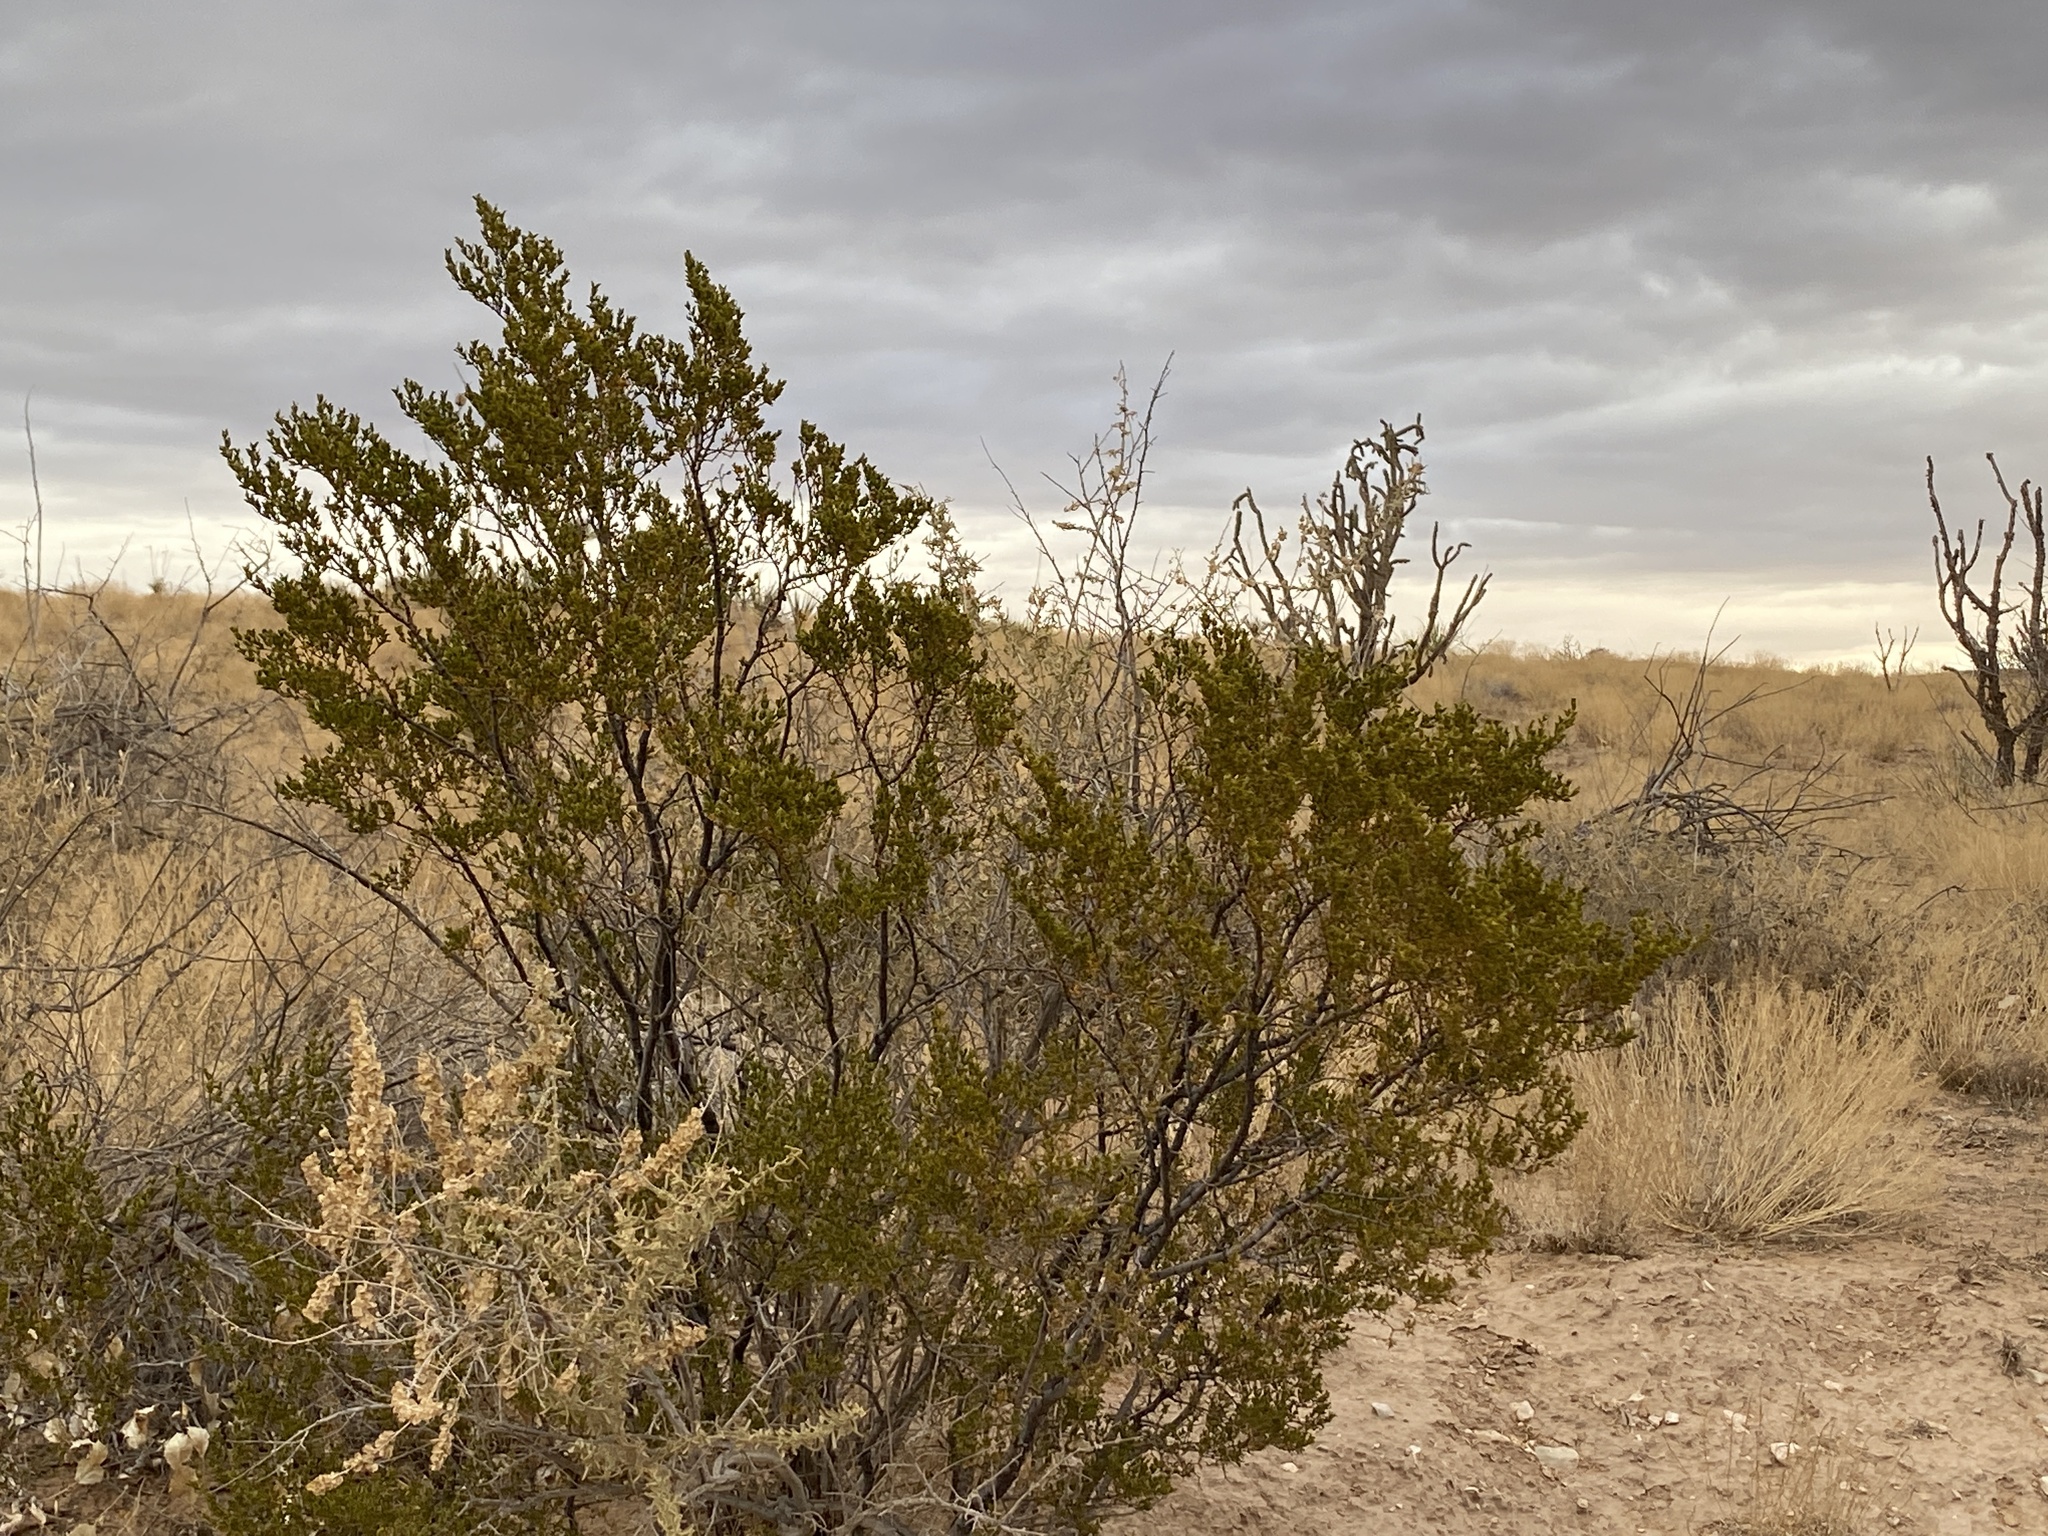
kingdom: Plantae
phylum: Tracheophyta
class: Magnoliopsida
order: Zygophyllales
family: Zygophyllaceae
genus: Larrea
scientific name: Larrea tridentata
